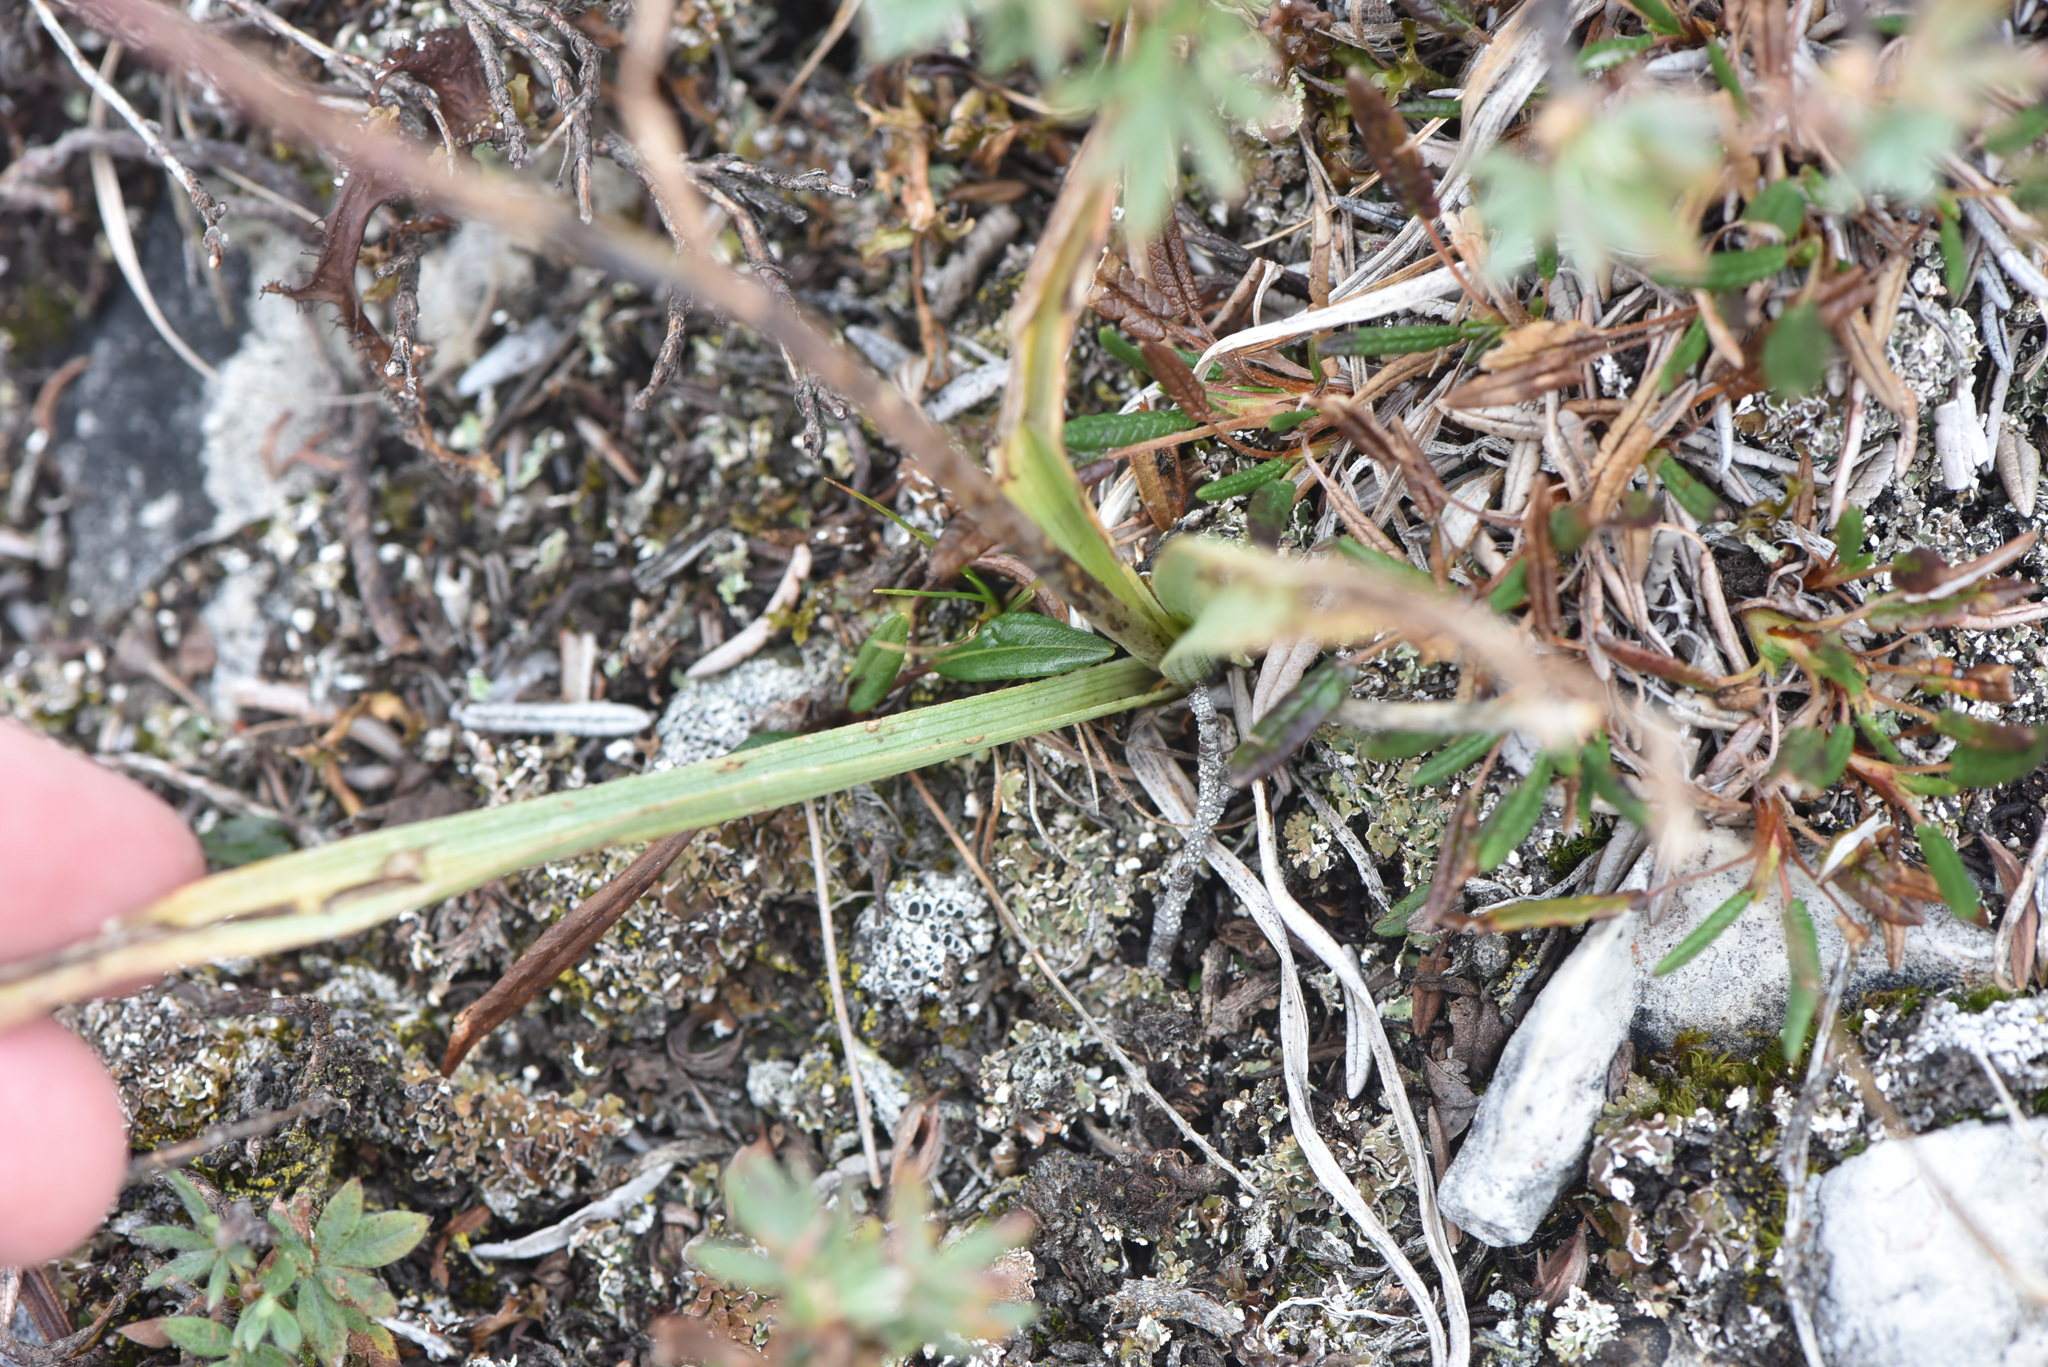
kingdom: Plantae
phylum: Tracheophyta
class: Liliopsida
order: Liliales
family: Melanthiaceae
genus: Anticlea
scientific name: Anticlea elegans
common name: Mountain death camas
